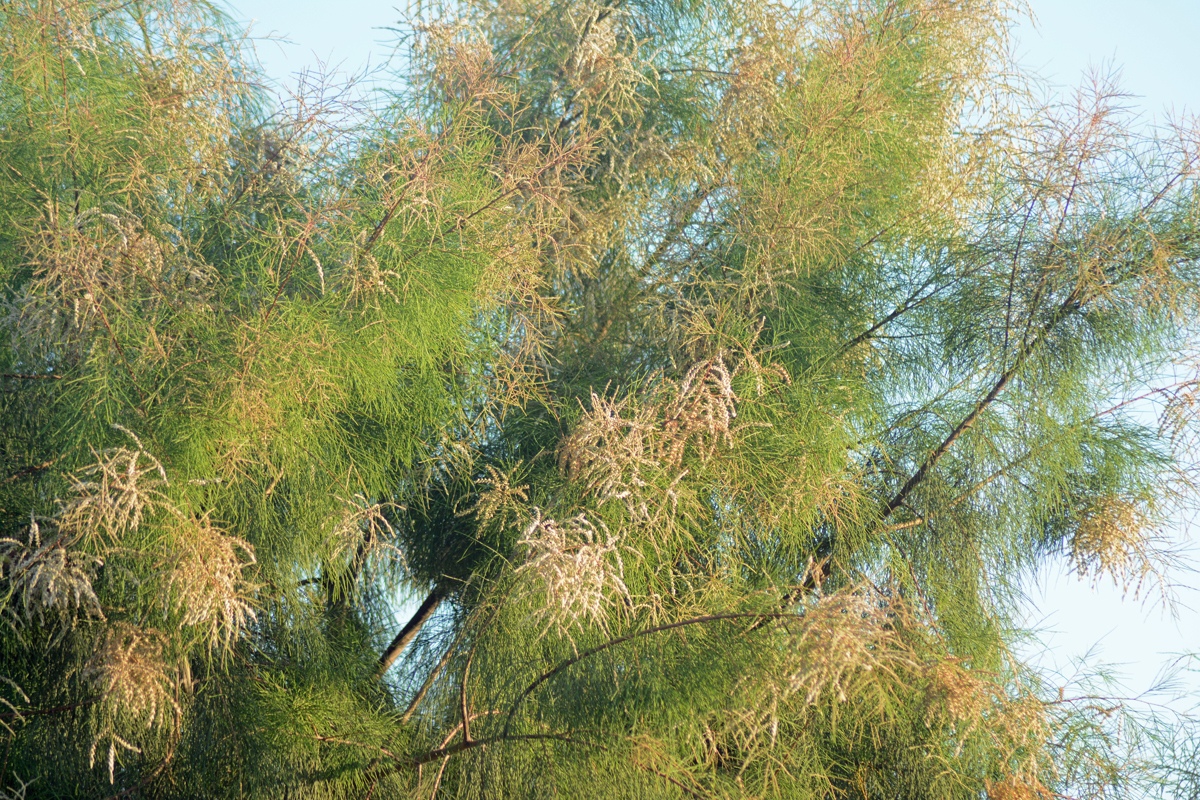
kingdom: Plantae
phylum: Tracheophyta
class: Magnoliopsida
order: Caryophyllales
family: Tamaricaceae
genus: Tamarix
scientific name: Tamarix aphylla
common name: Athel tamarisk
